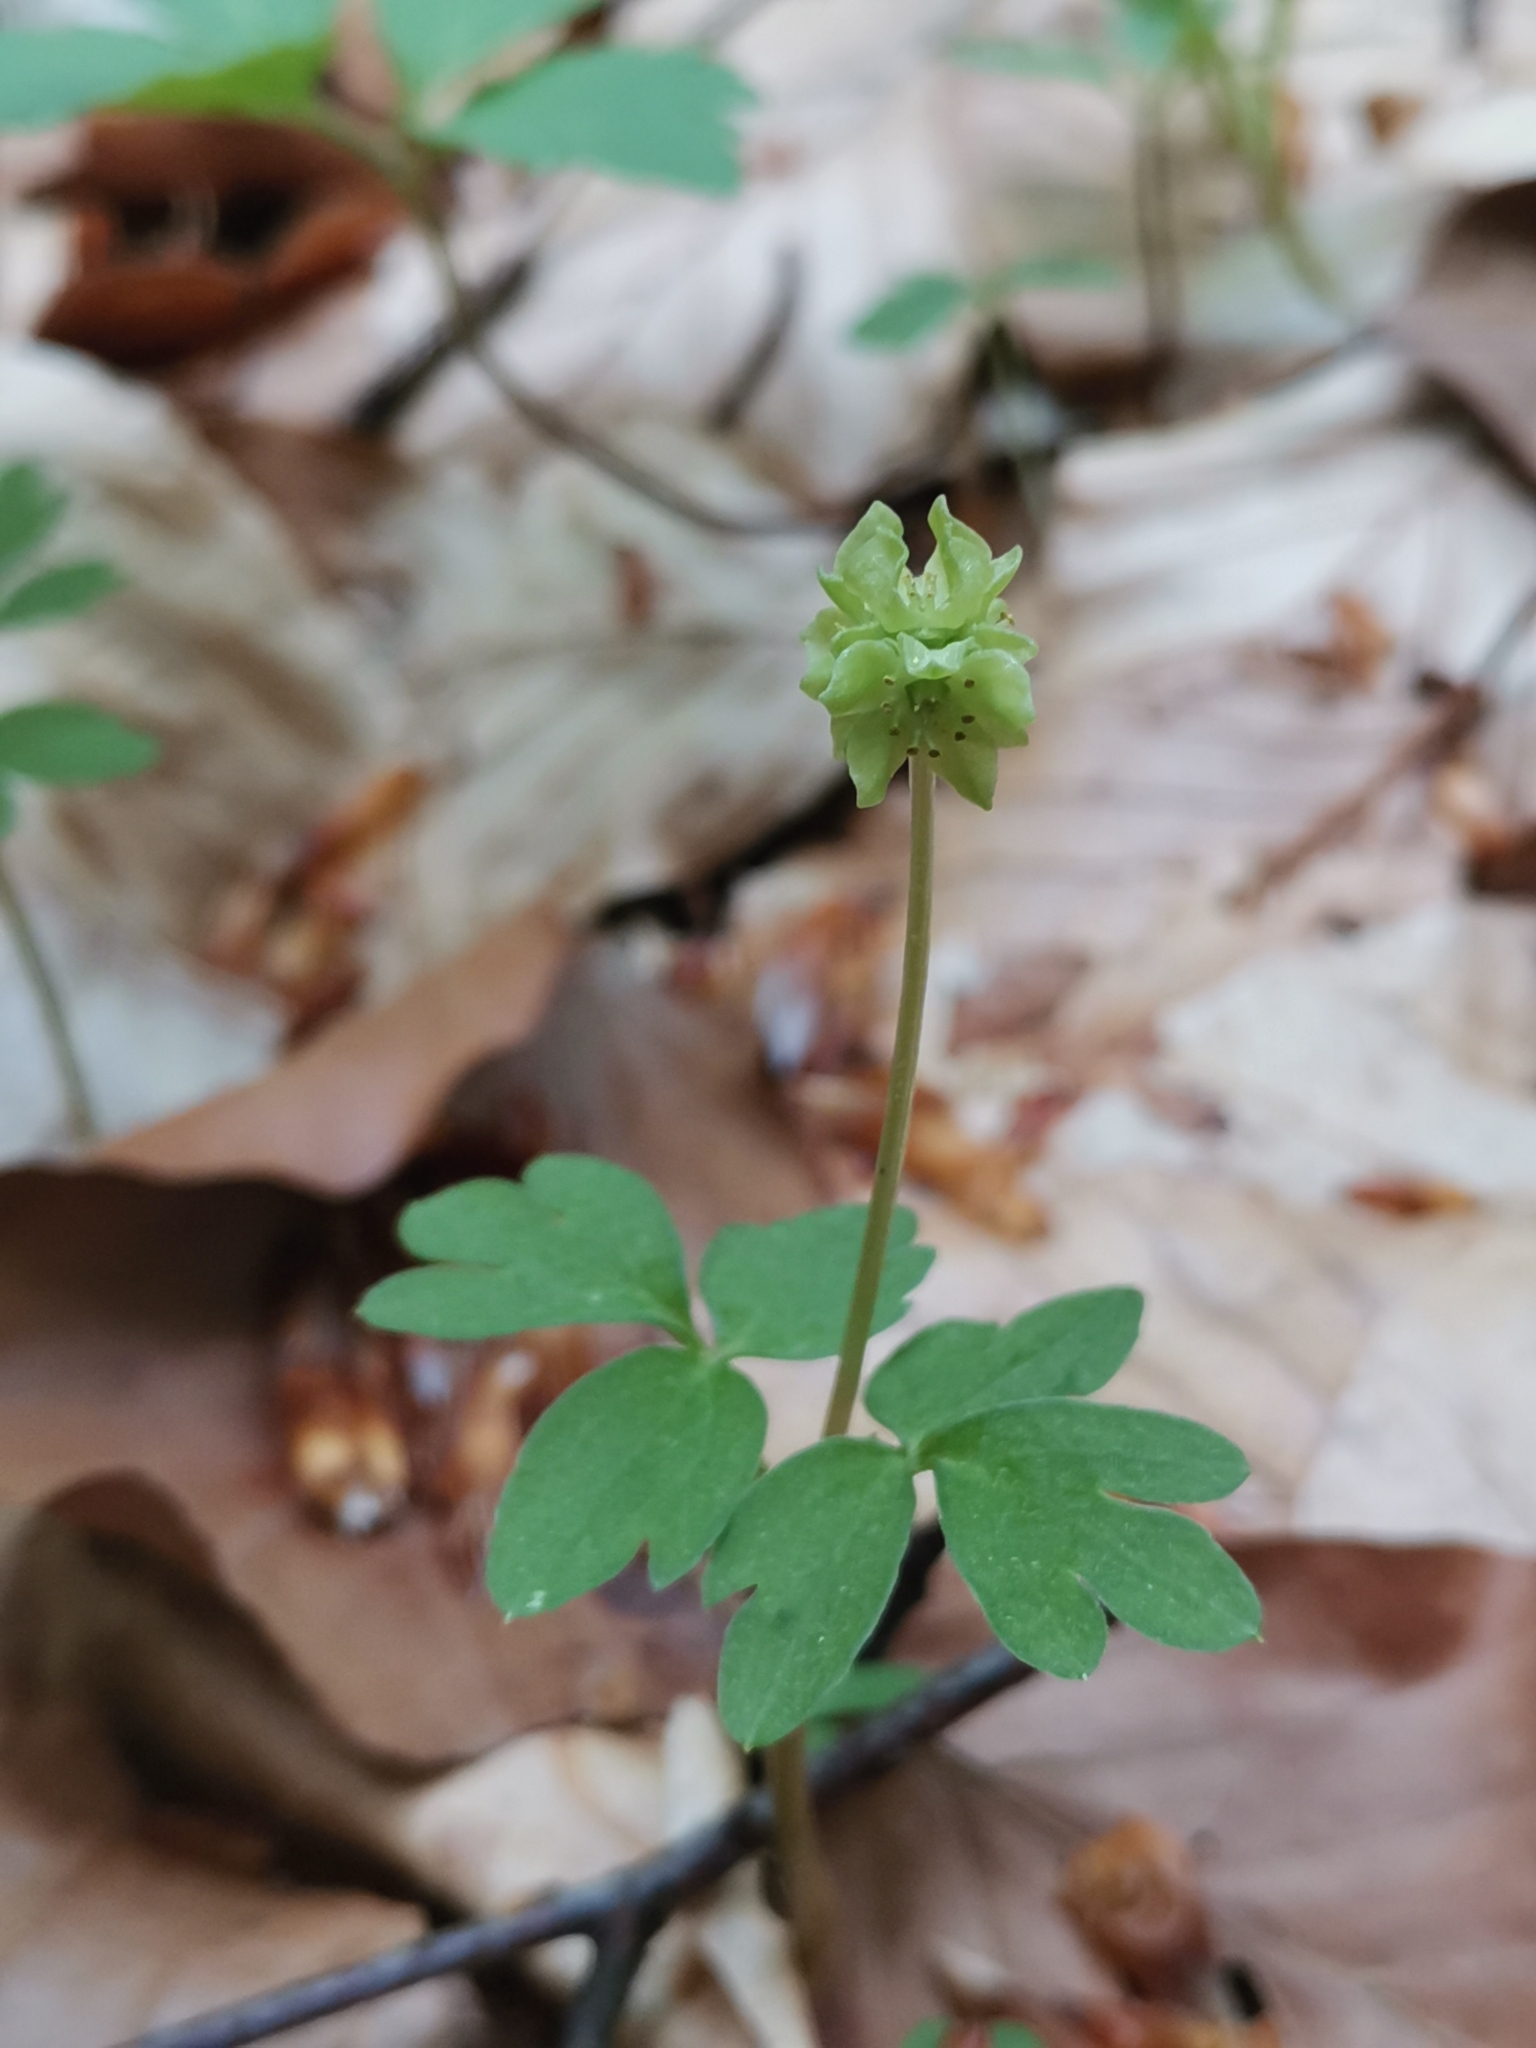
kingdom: Plantae
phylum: Tracheophyta
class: Magnoliopsida
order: Dipsacales
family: Viburnaceae
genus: Adoxa
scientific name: Adoxa moschatellina
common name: Moschatel
